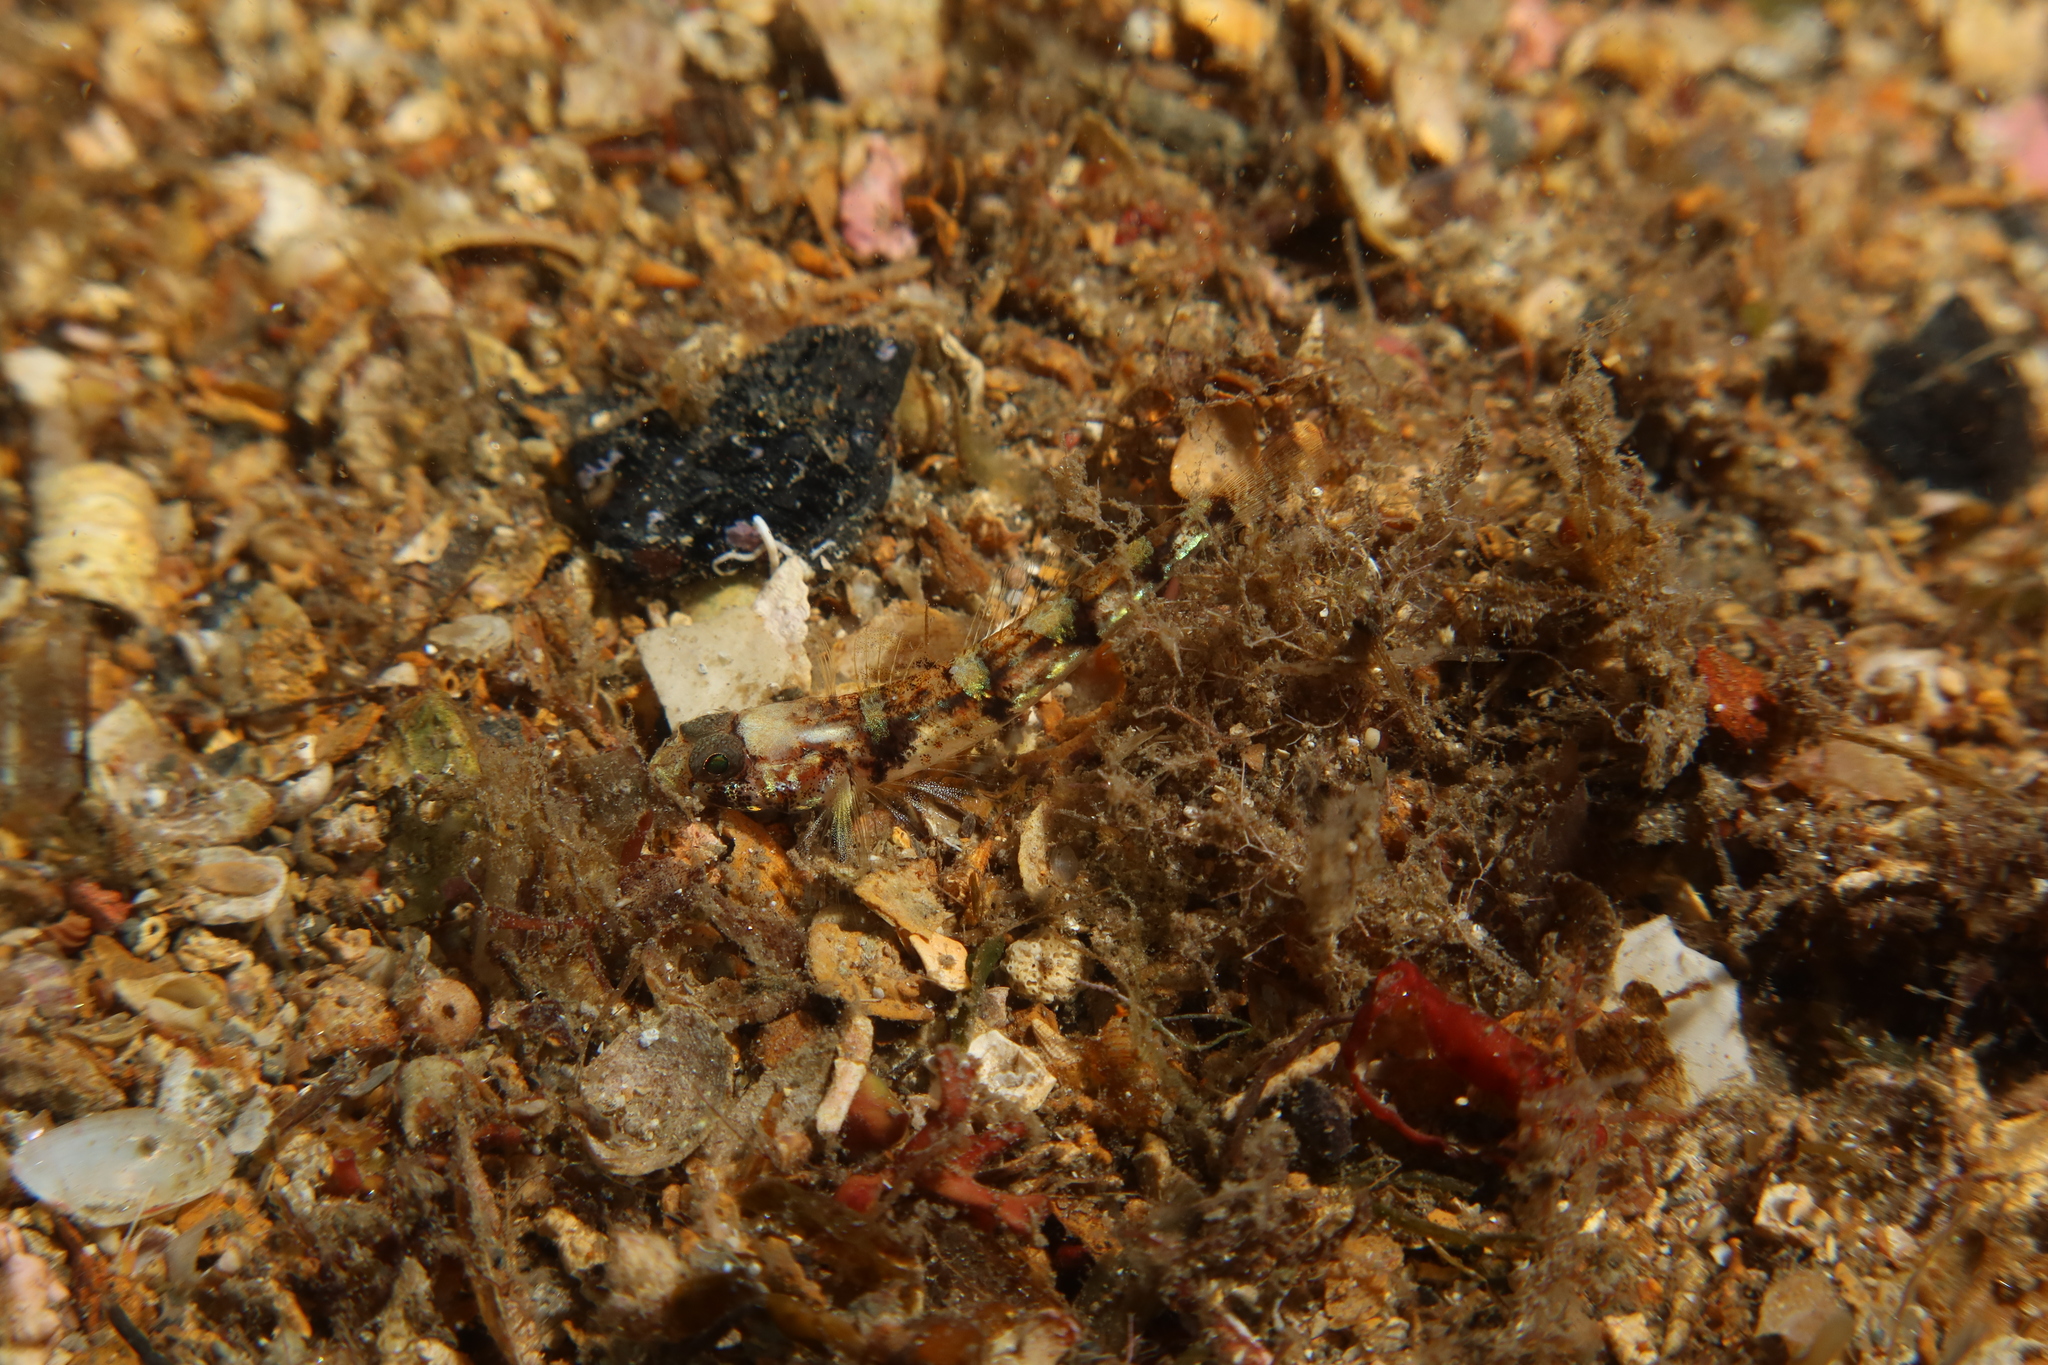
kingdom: Animalia
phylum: Chordata
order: Perciformes
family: Gobiidae
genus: Buenia
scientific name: Buenia affinis
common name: De buen's goby
